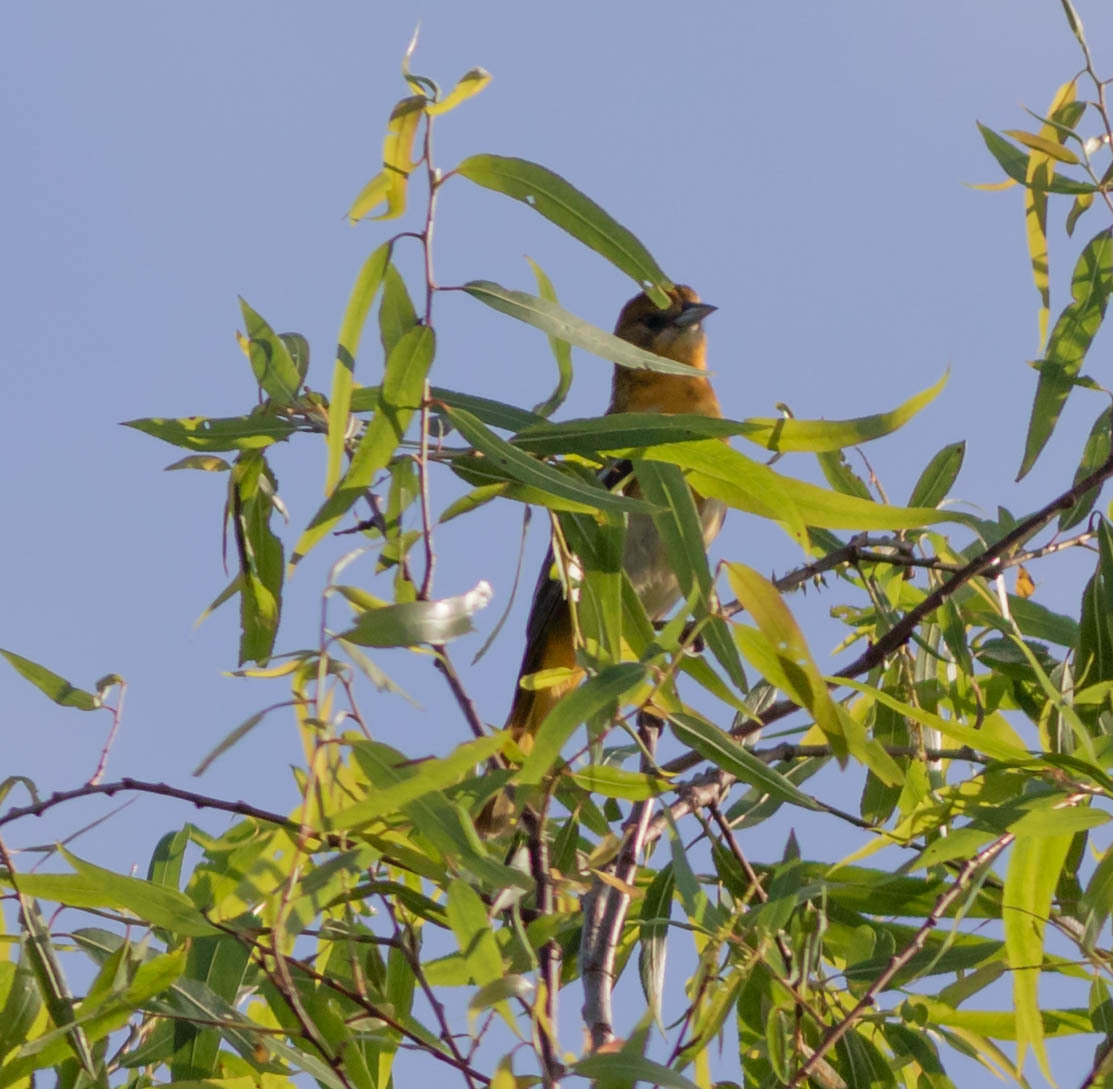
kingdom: Animalia
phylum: Chordata
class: Aves
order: Passeriformes
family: Icteridae
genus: Icterus
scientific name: Icterus galbula
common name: Baltimore oriole
